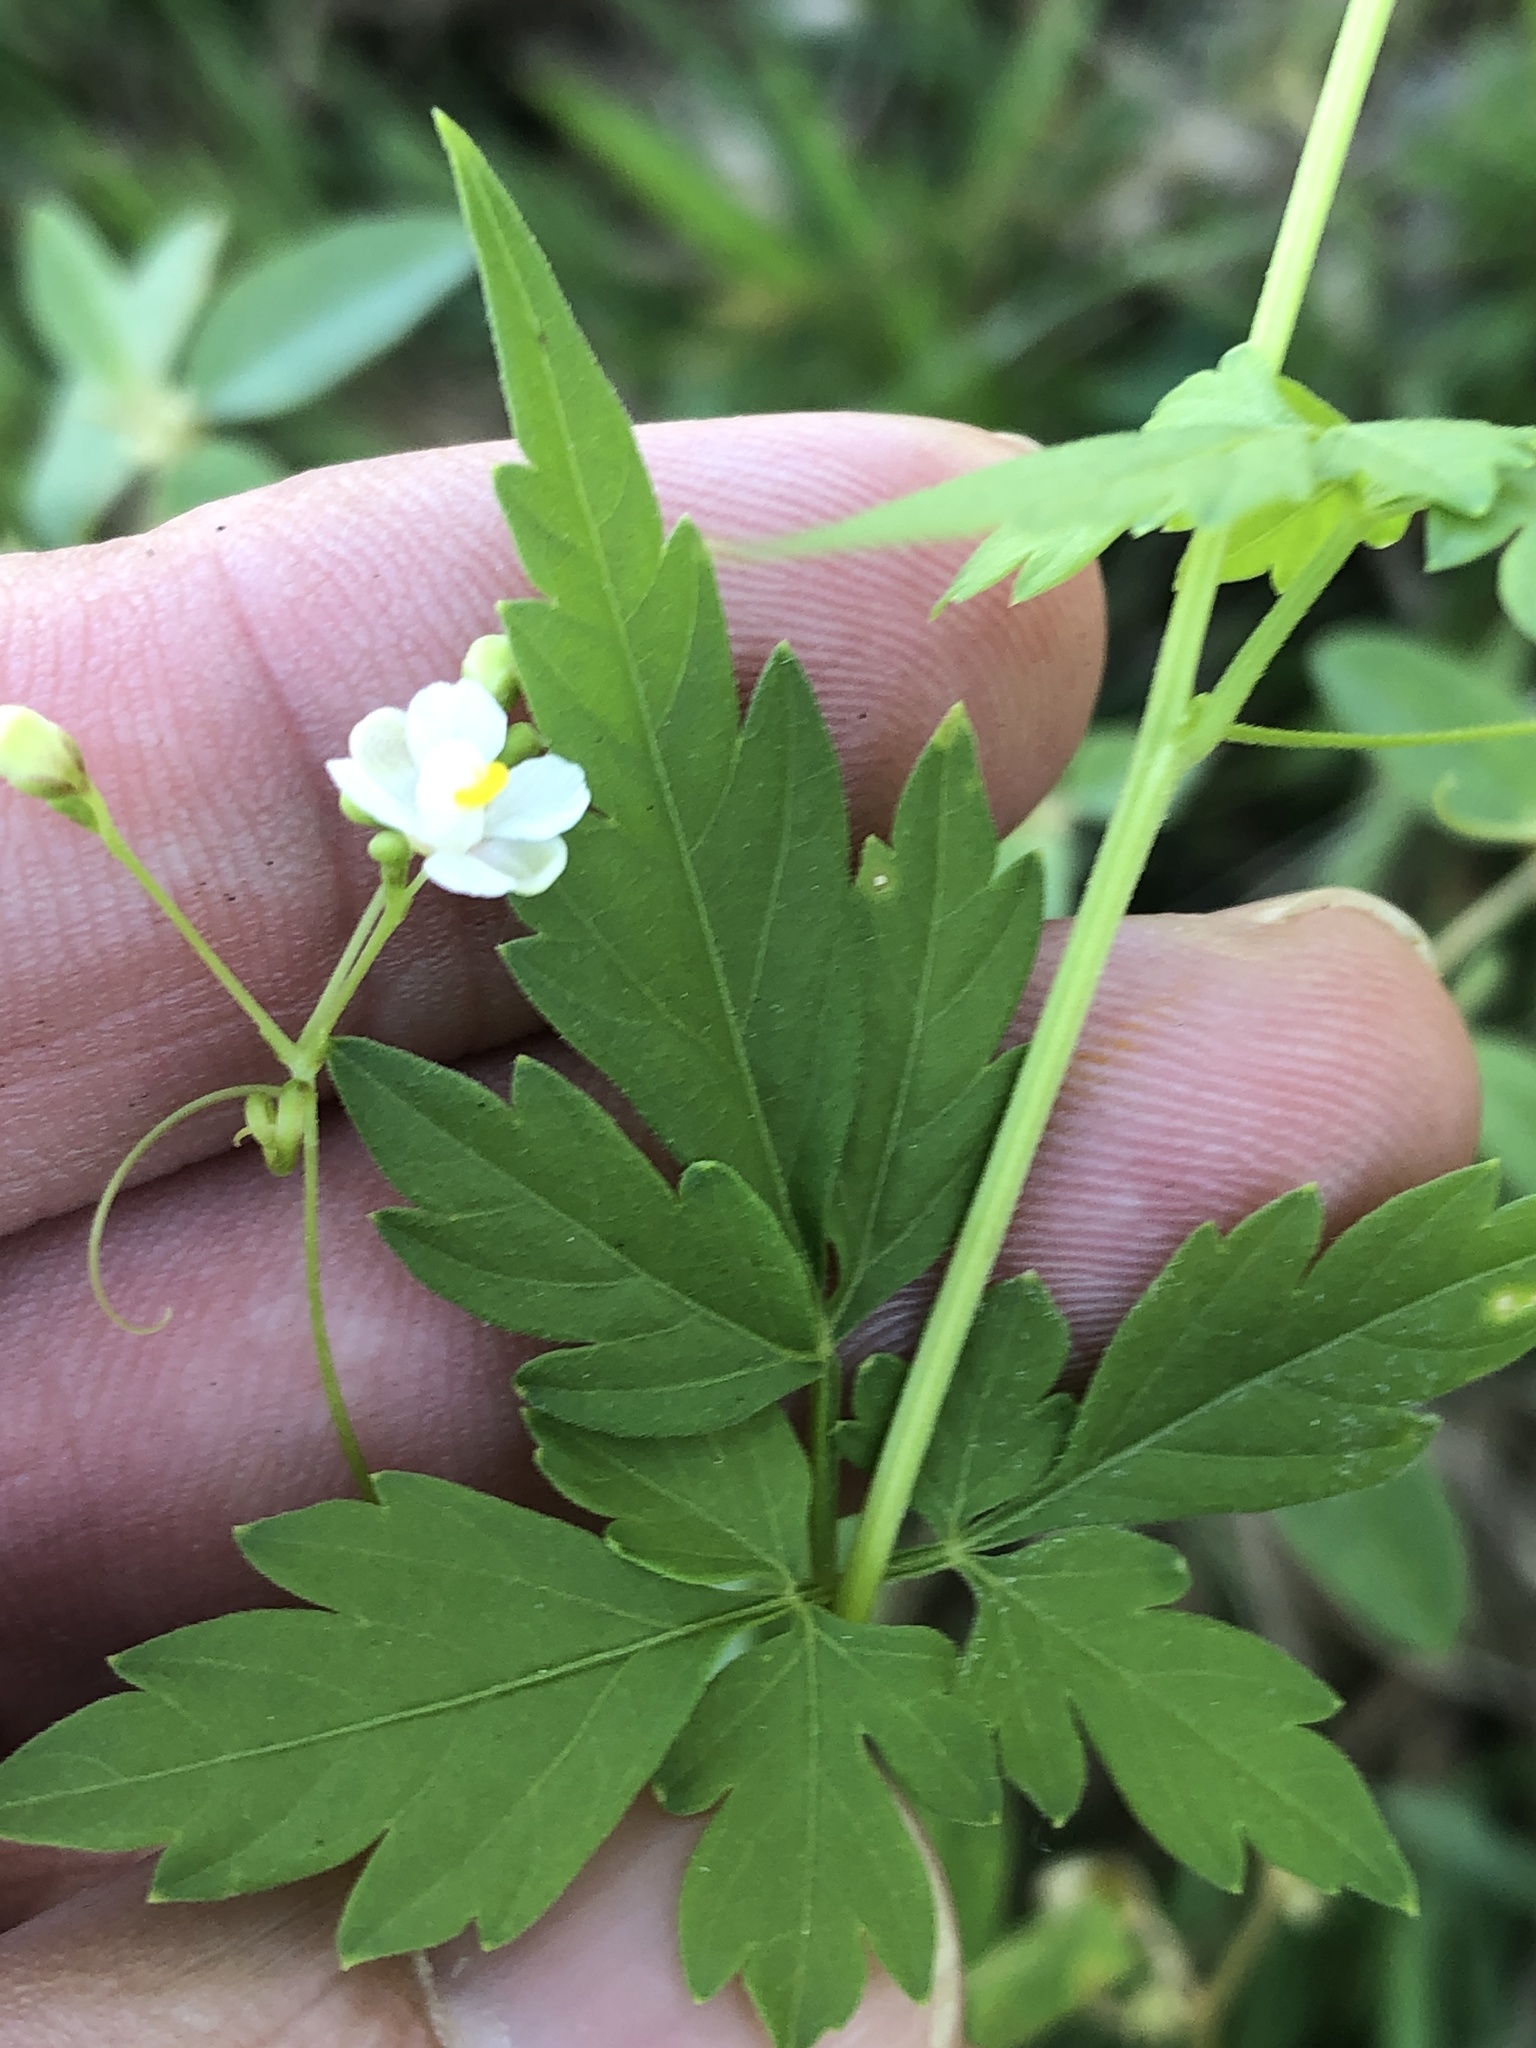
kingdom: Plantae
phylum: Tracheophyta
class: Magnoliopsida
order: Sapindales
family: Sapindaceae
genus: Cardiospermum
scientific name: Cardiospermum halicacabum
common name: Balloon vine
